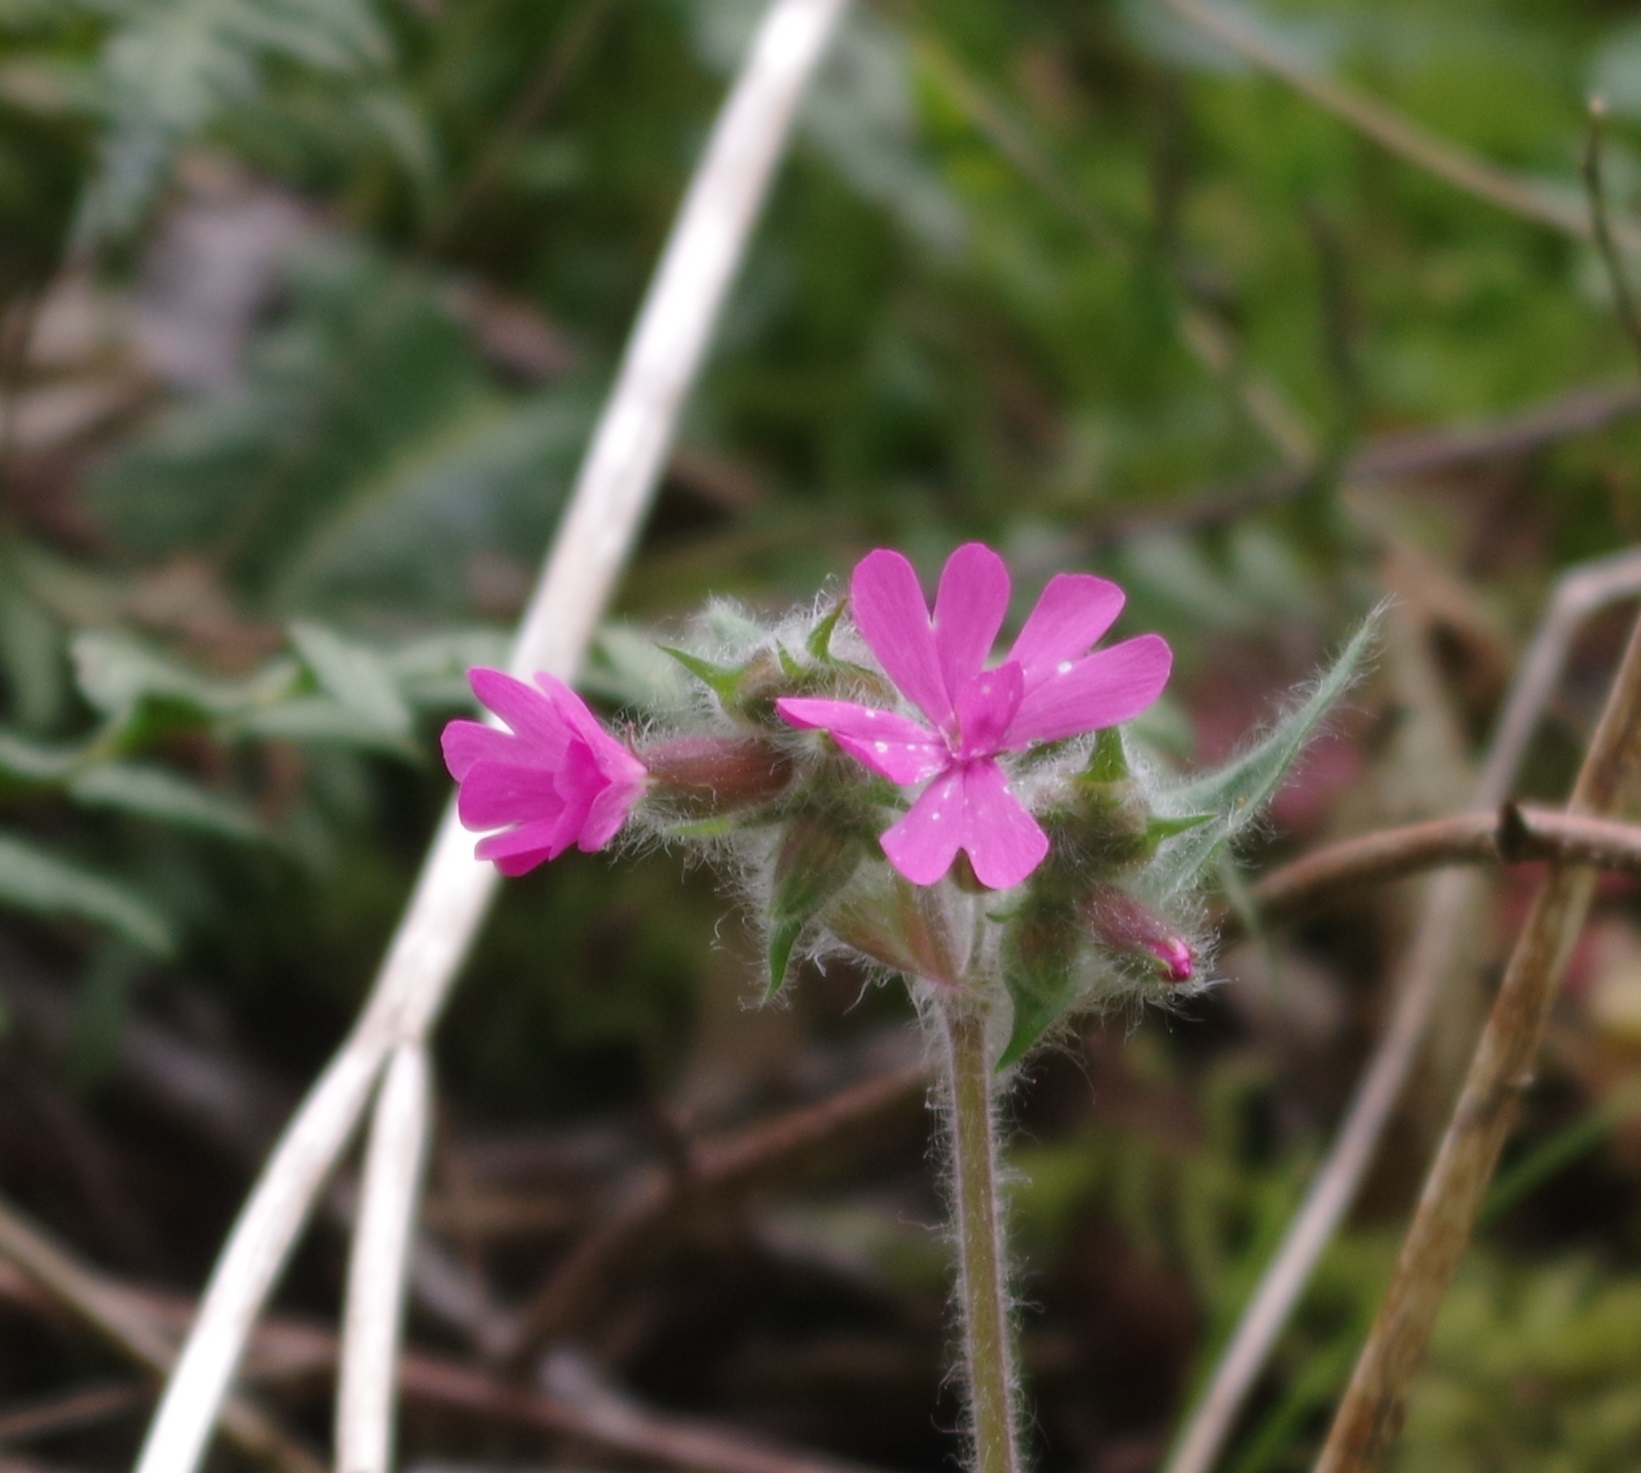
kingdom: Plantae
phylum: Tracheophyta
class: Magnoliopsida
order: Caryophyllales
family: Caryophyllaceae
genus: Silene
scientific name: Silene dioica
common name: Red campion
